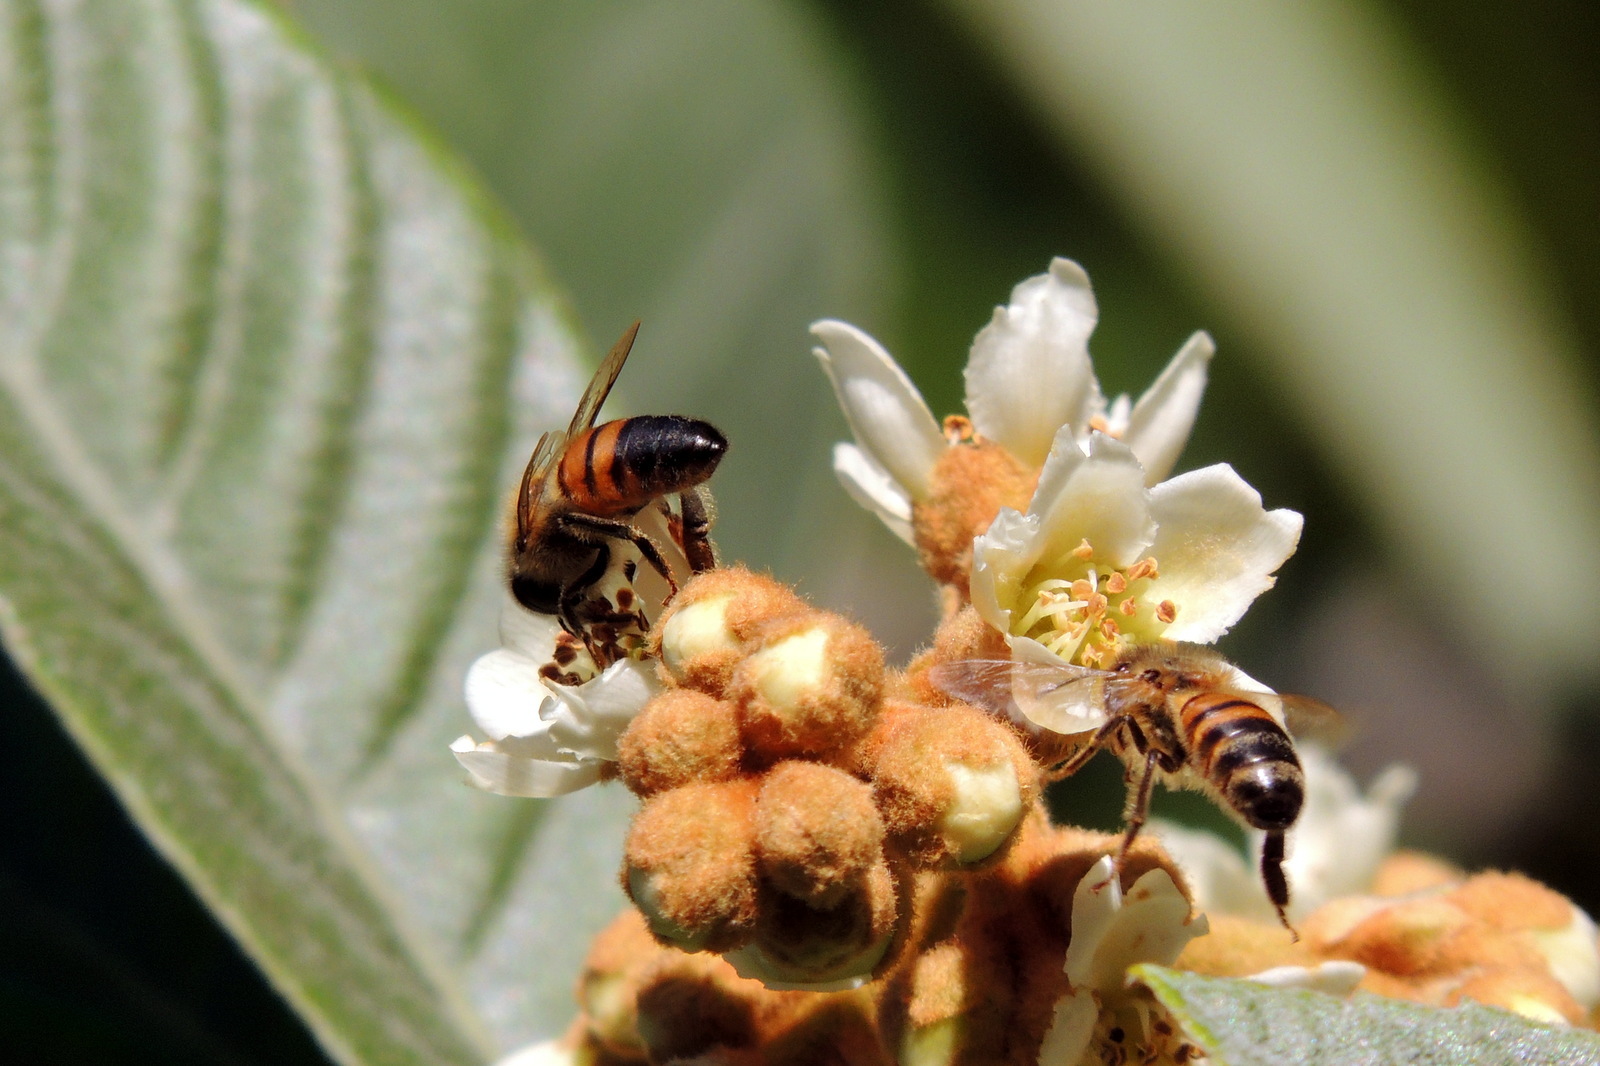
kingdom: Animalia
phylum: Arthropoda
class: Insecta
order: Hymenoptera
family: Apidae
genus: Apis
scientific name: Apis mellifera
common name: Honey bee
